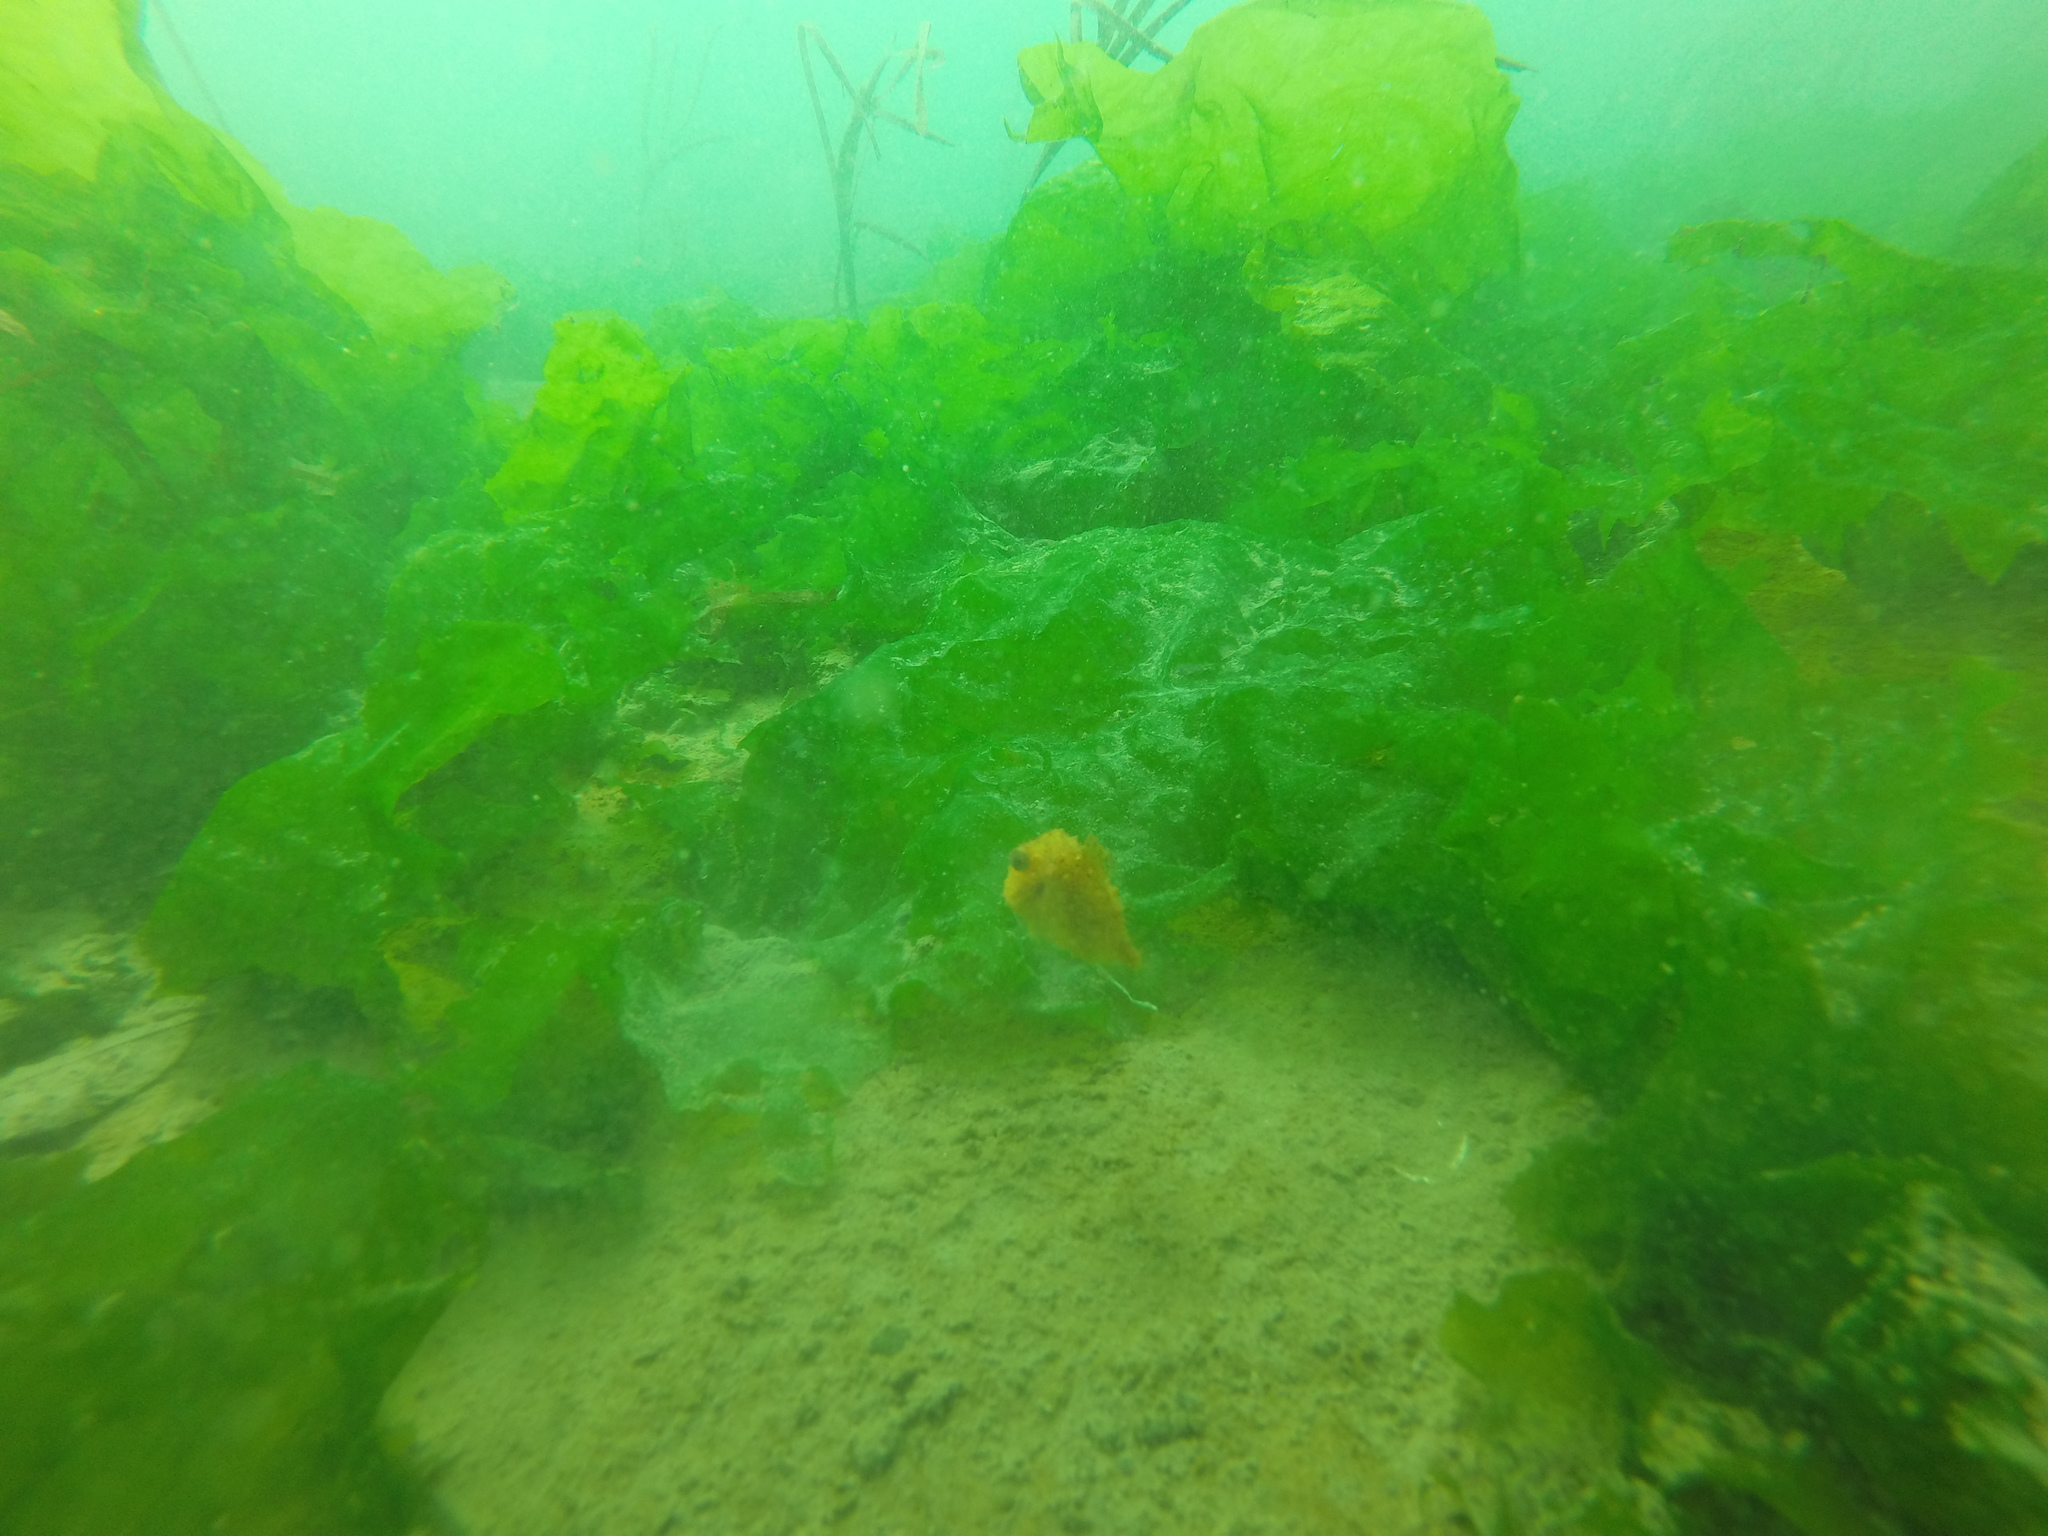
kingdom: Animalia
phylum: Chordata
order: Scorpaeniformes
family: Cyclopteridae
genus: Eumicrotremus
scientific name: Eumicrotremus orbis
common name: Pacific spiny lumpsucker
